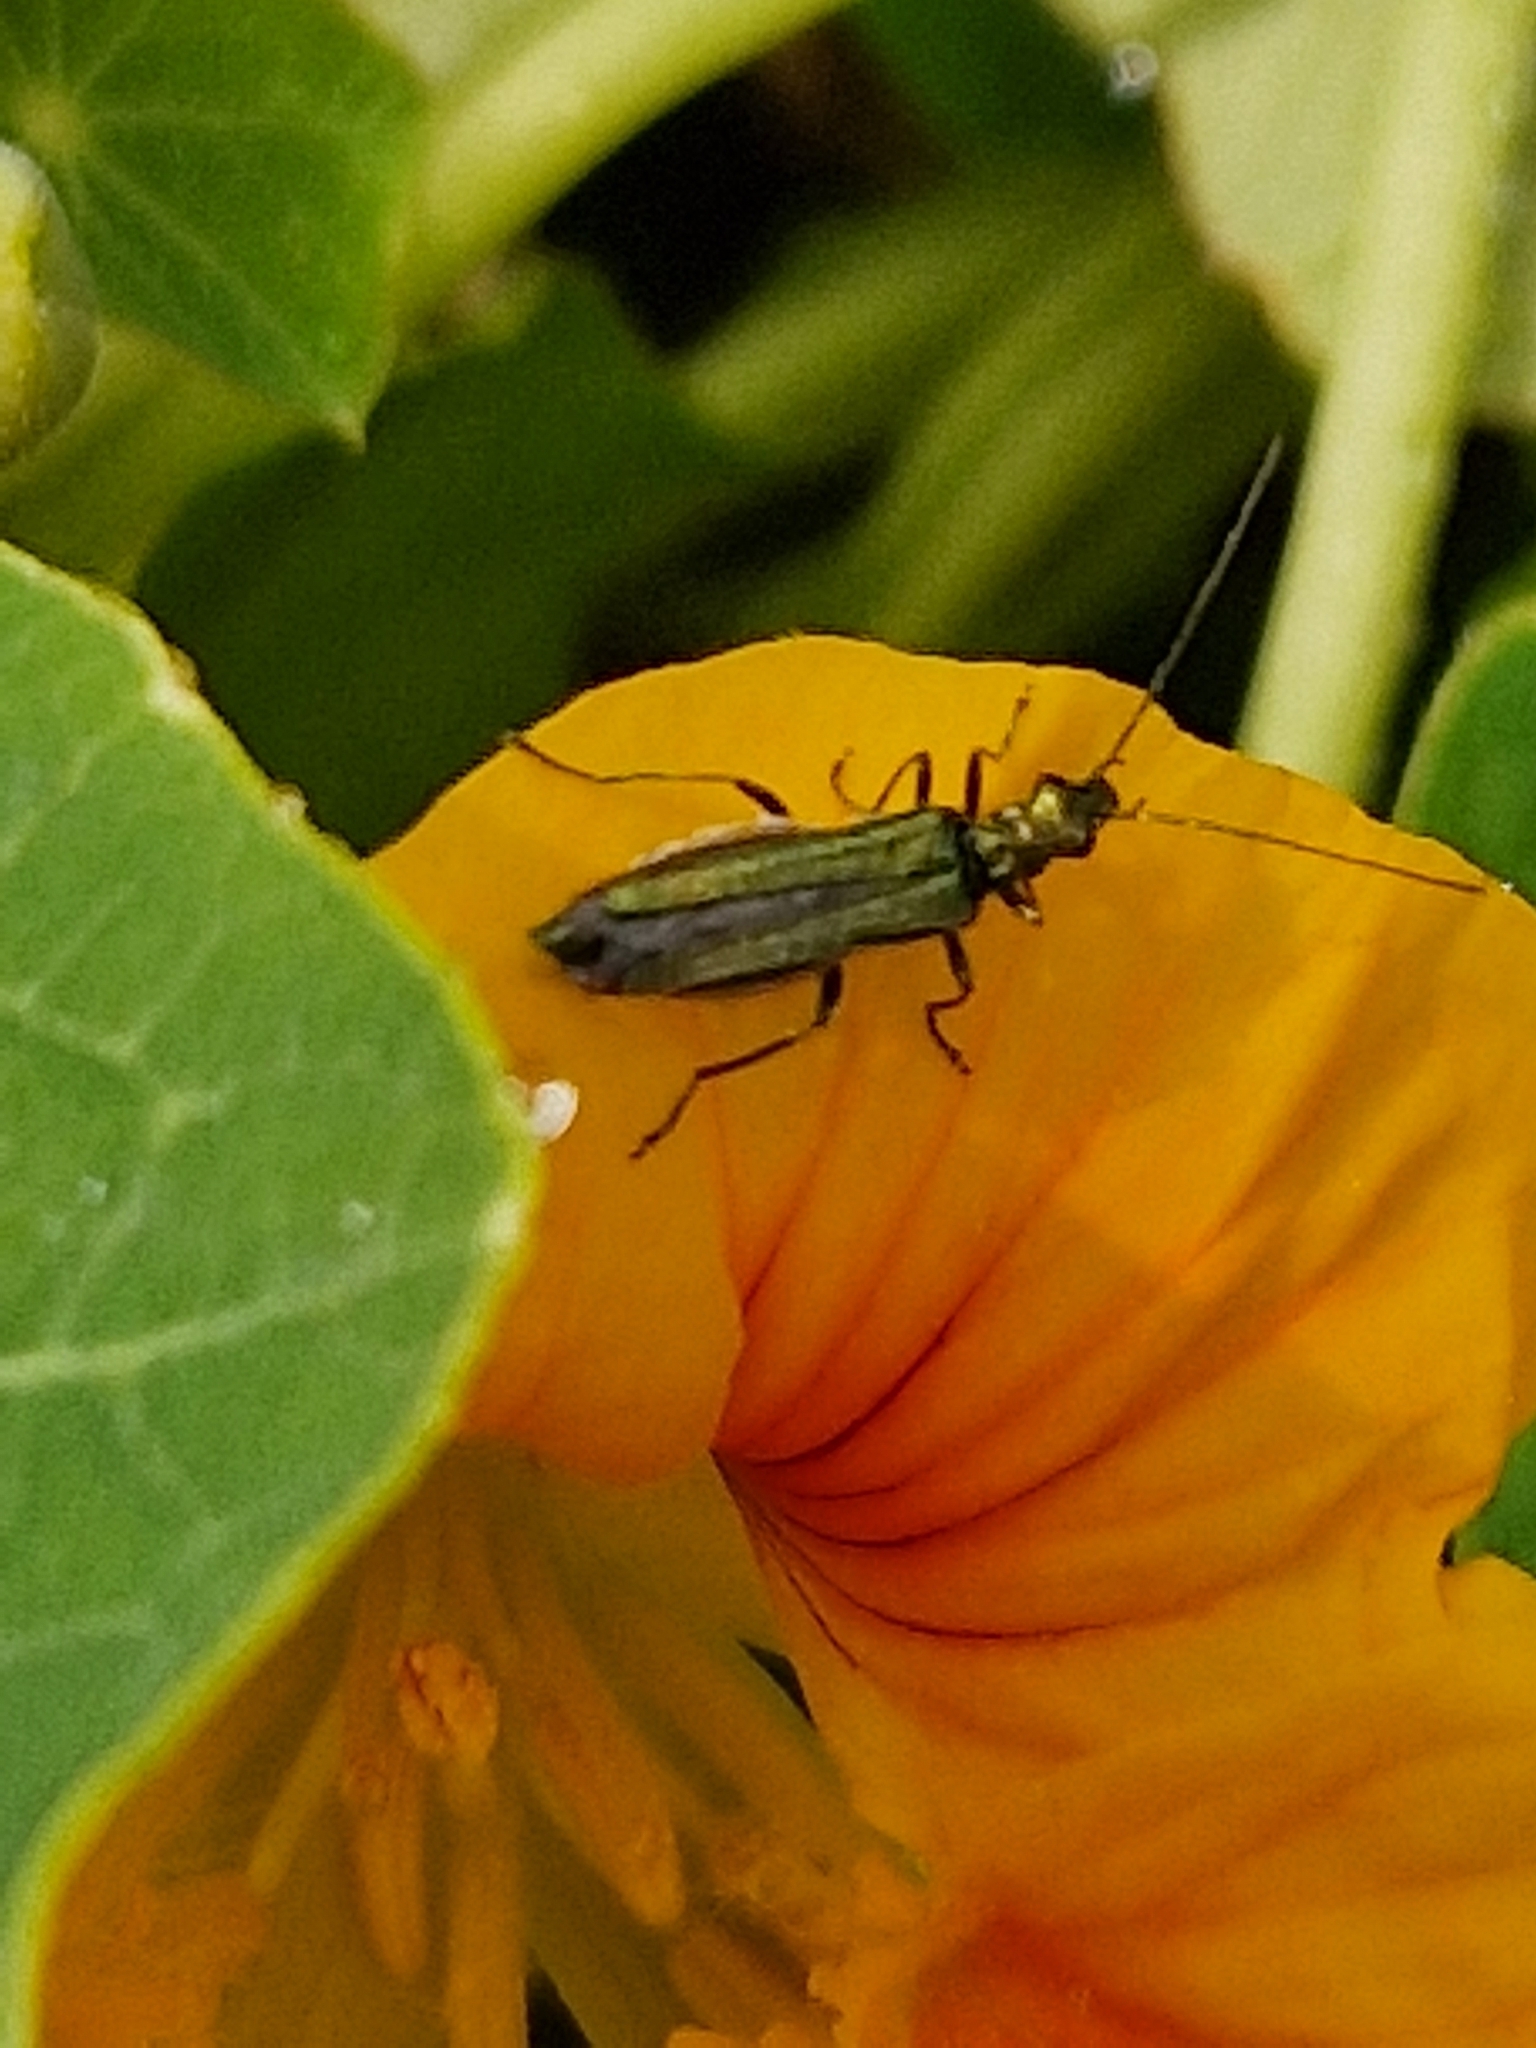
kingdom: Animalia
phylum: Arthropoda
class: Insecta
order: Coleoptera
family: Oedemeridae
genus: Oedemera
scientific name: Oedemera nobilis
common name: Swollen-thighed beetle
